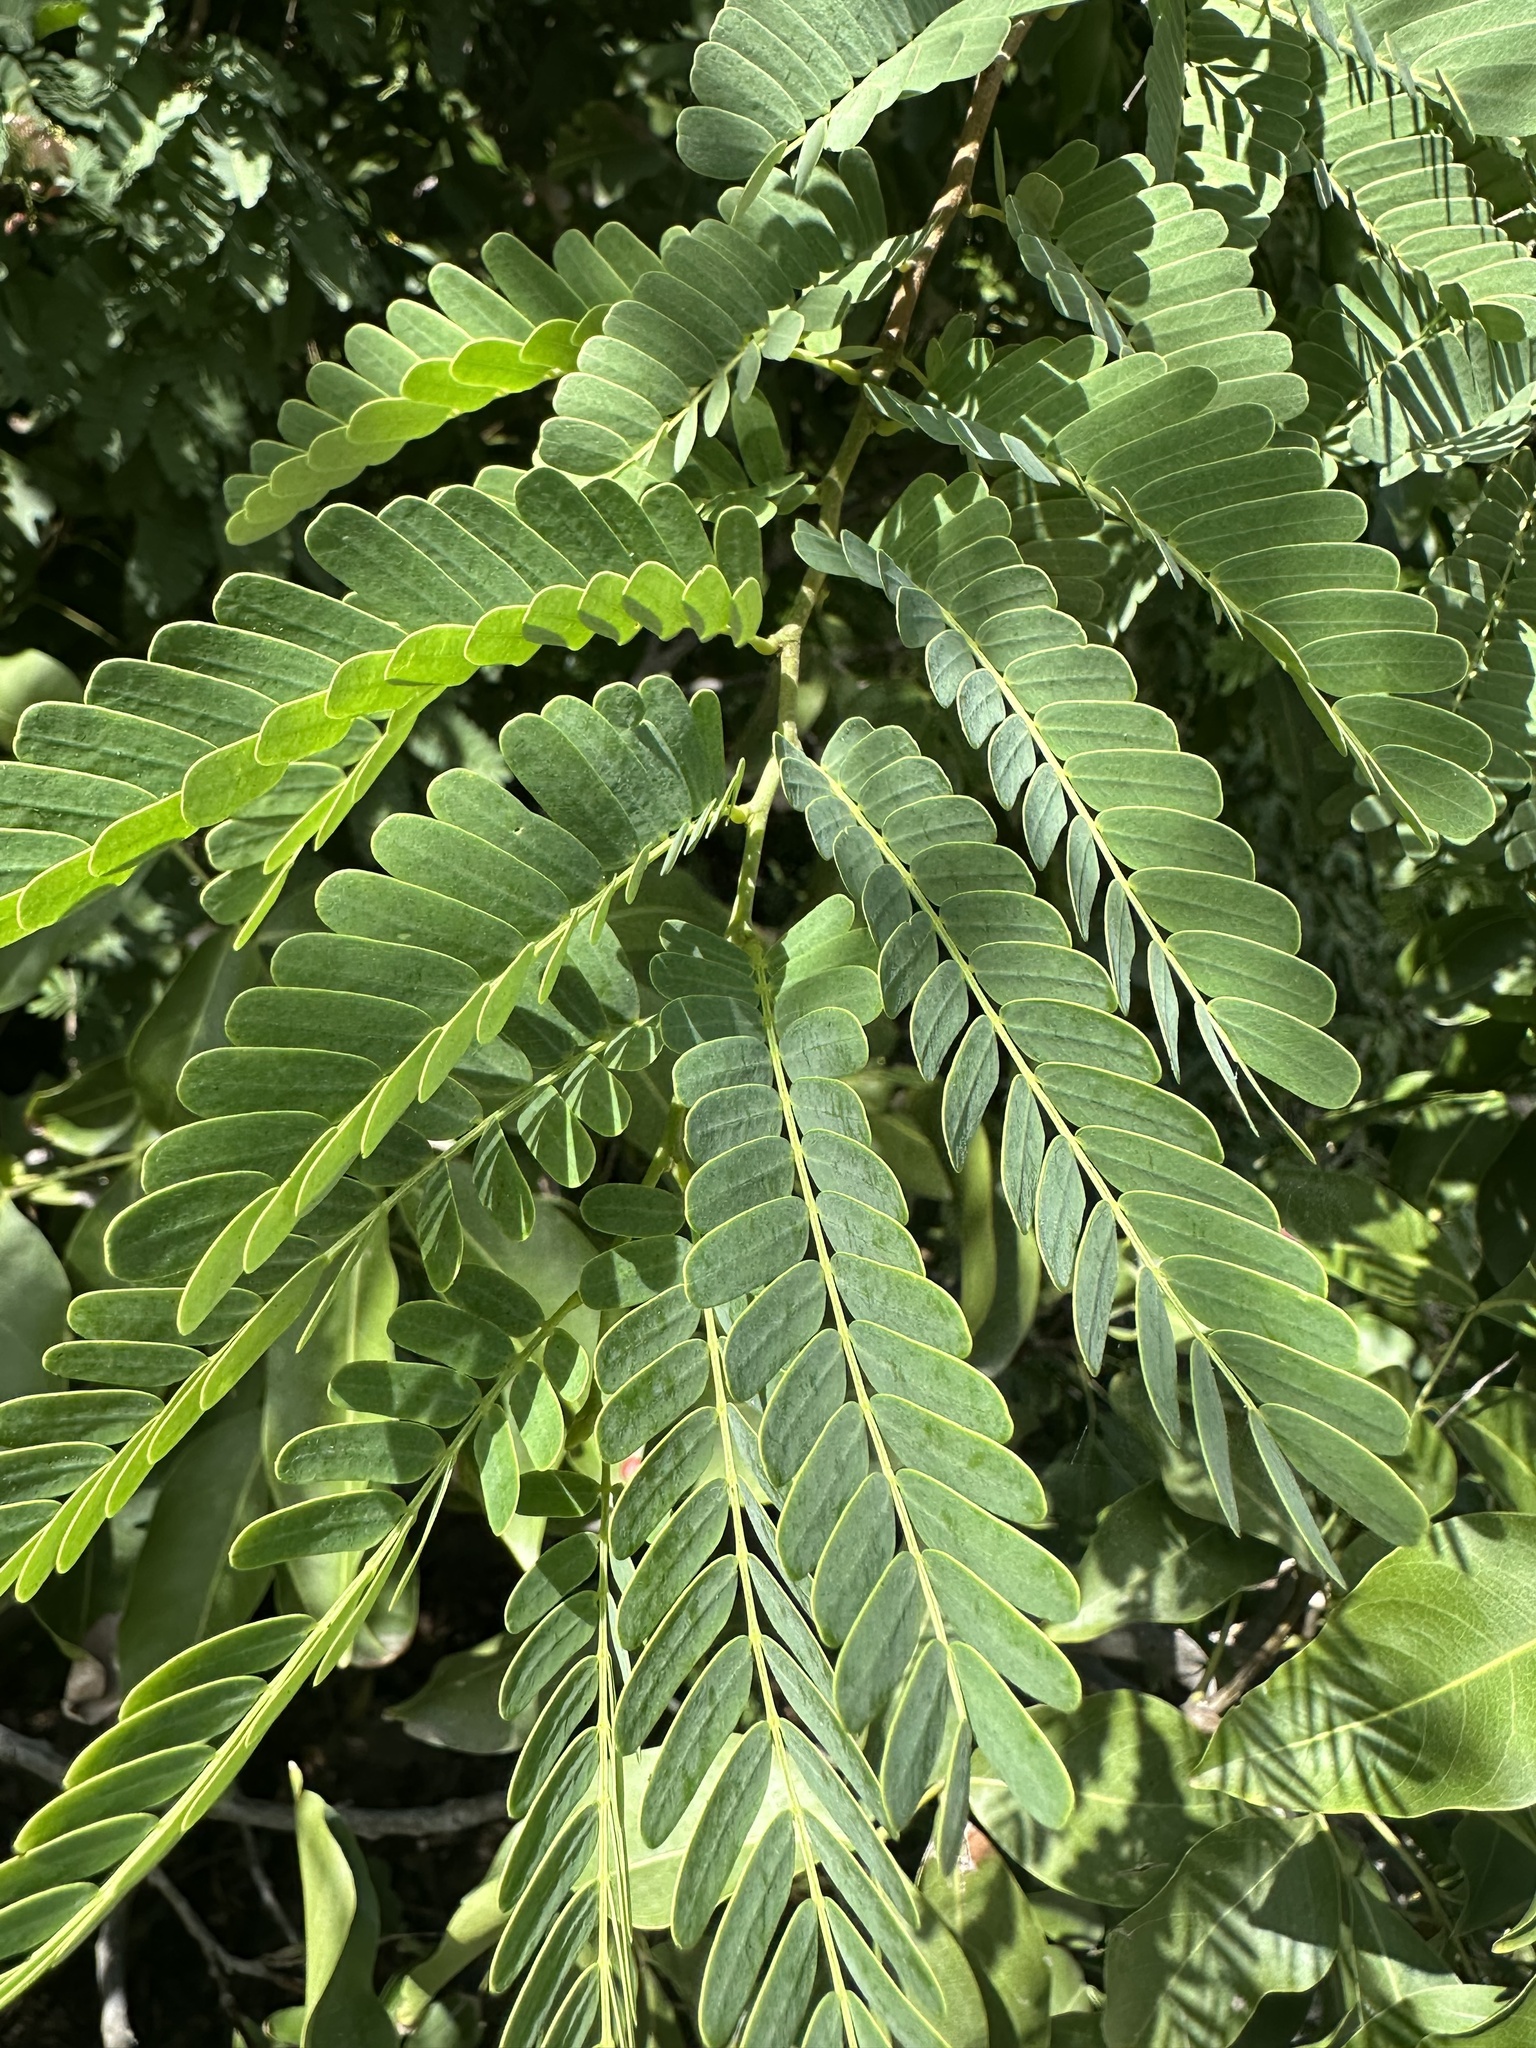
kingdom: Plantae
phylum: Tracheophyta
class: Magnoliopsida
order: Fabales
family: Fabaceae
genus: Tamarindus
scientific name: Tamarindus indica
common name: Tamarind
